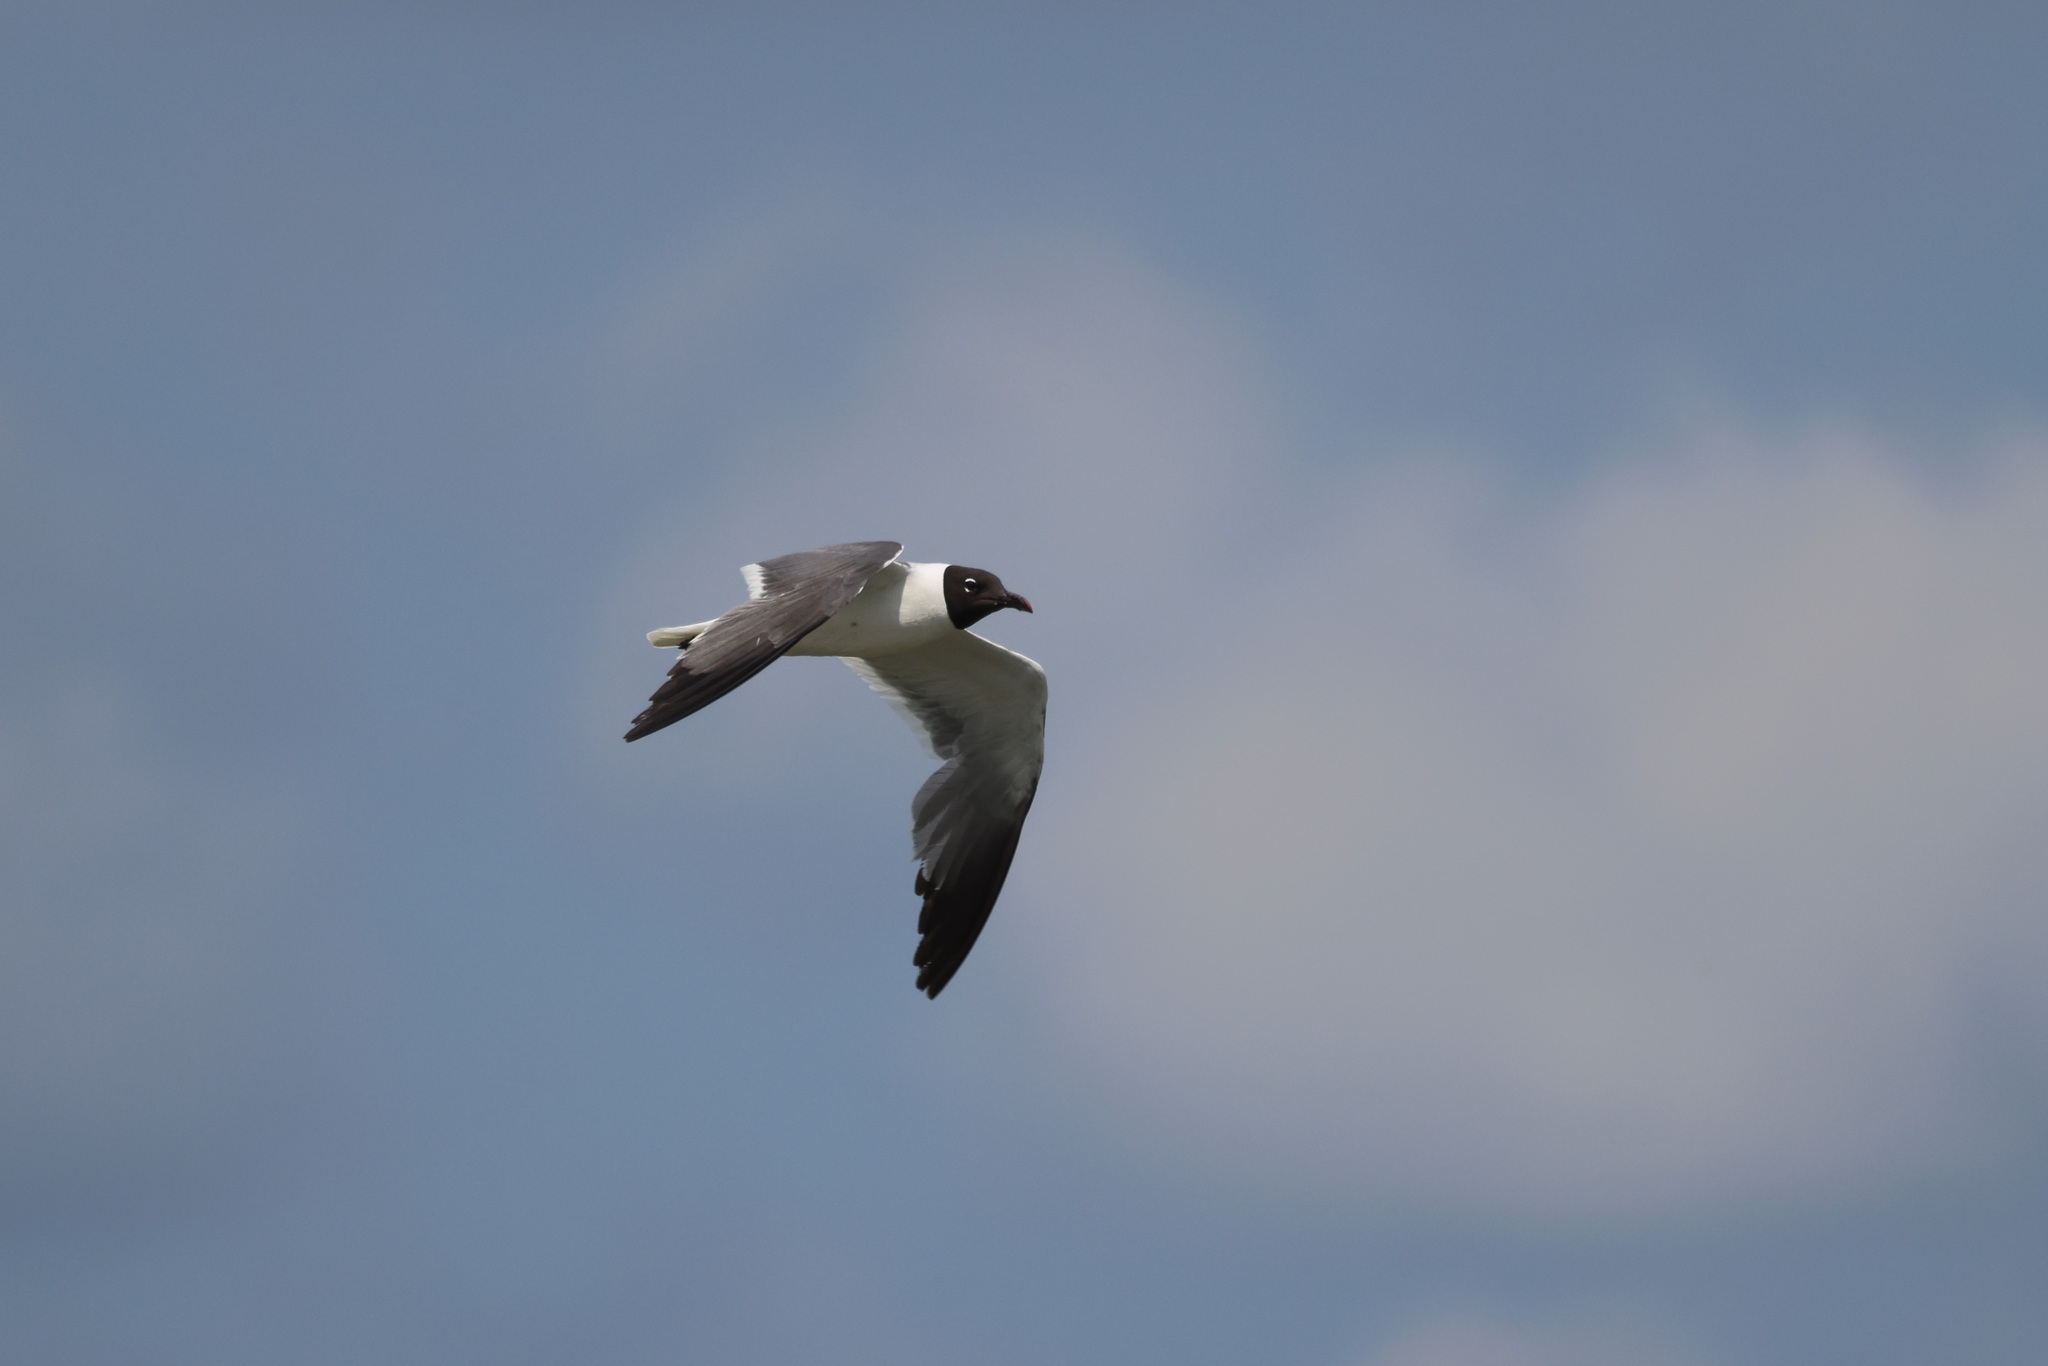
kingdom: Animalia
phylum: Chordata
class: Aves
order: Charadriiformes
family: Laridae
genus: Leucophaeus
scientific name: Leucophaeus atricilla
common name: Laughing gull
